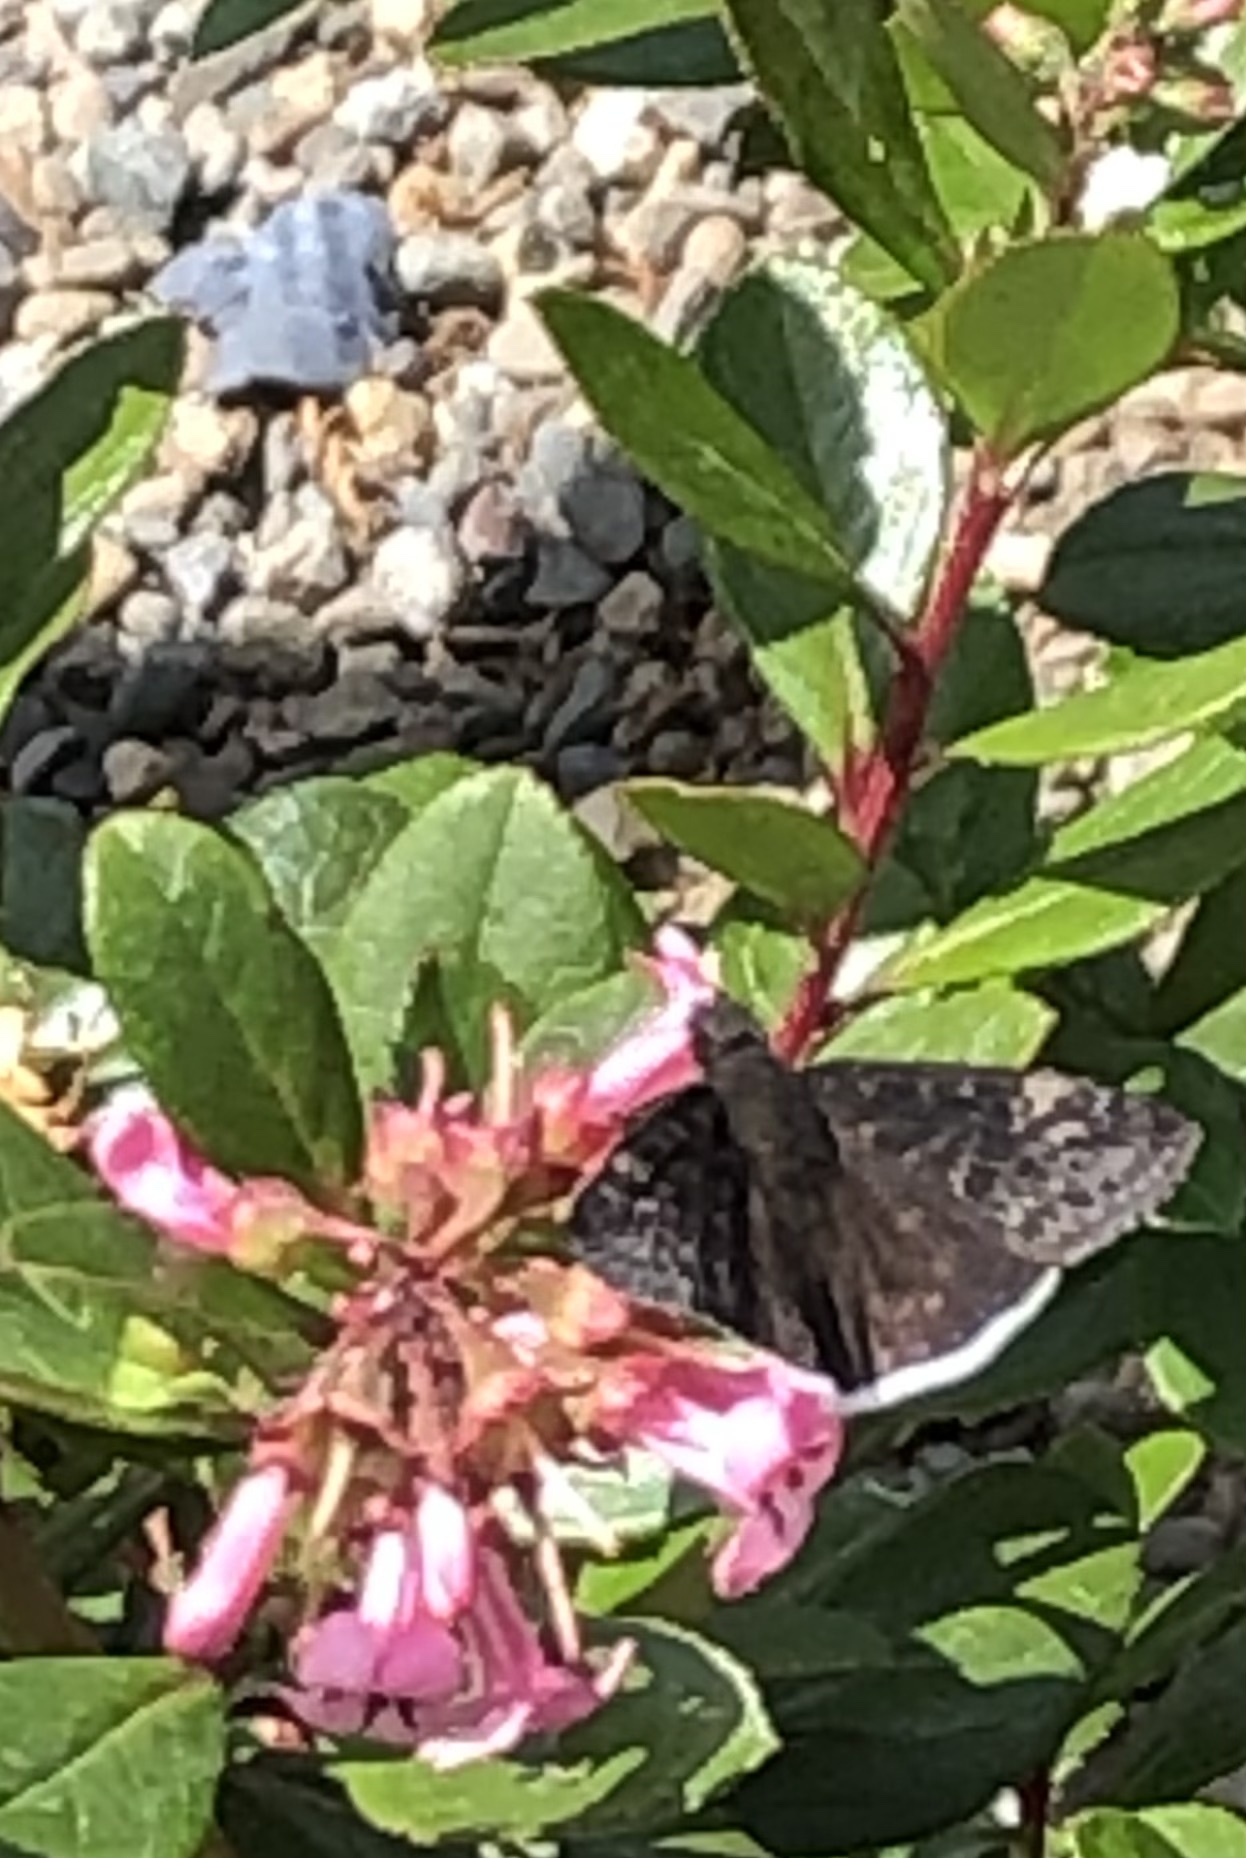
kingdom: Animalia
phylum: Arthropoda
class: Insecta
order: Lepidoptera
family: Hesperiidae
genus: Erynnis
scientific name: Erynnis tristis
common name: Mournful duskywing
